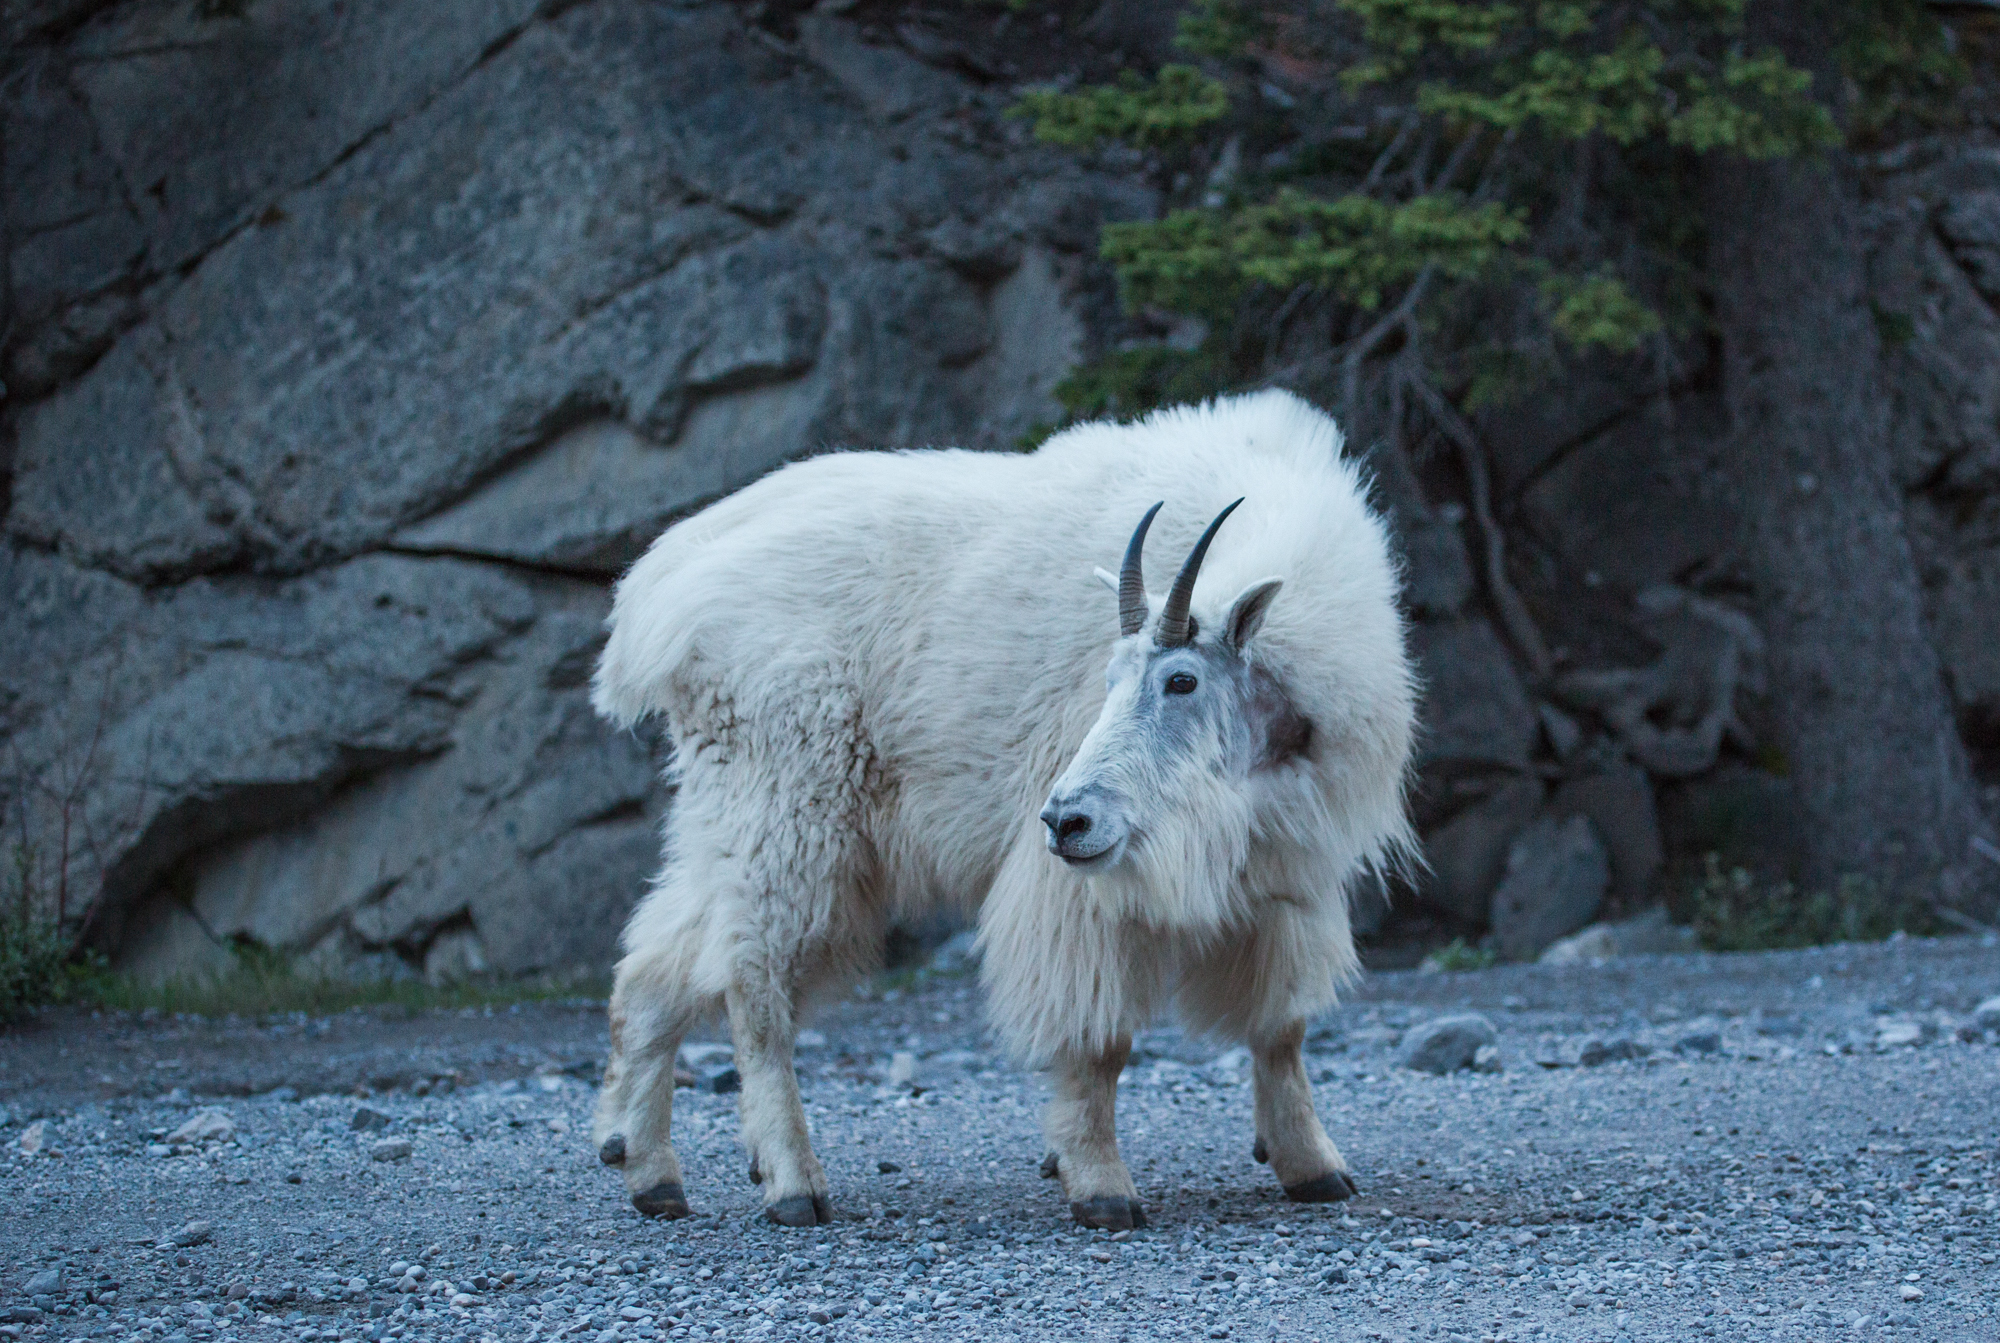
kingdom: Animalia
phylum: Chordata
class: Mammalia
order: Artiodactyla
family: Bovidae
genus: Oreamnos
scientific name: Oreamnos americanus
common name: Mountain goat
